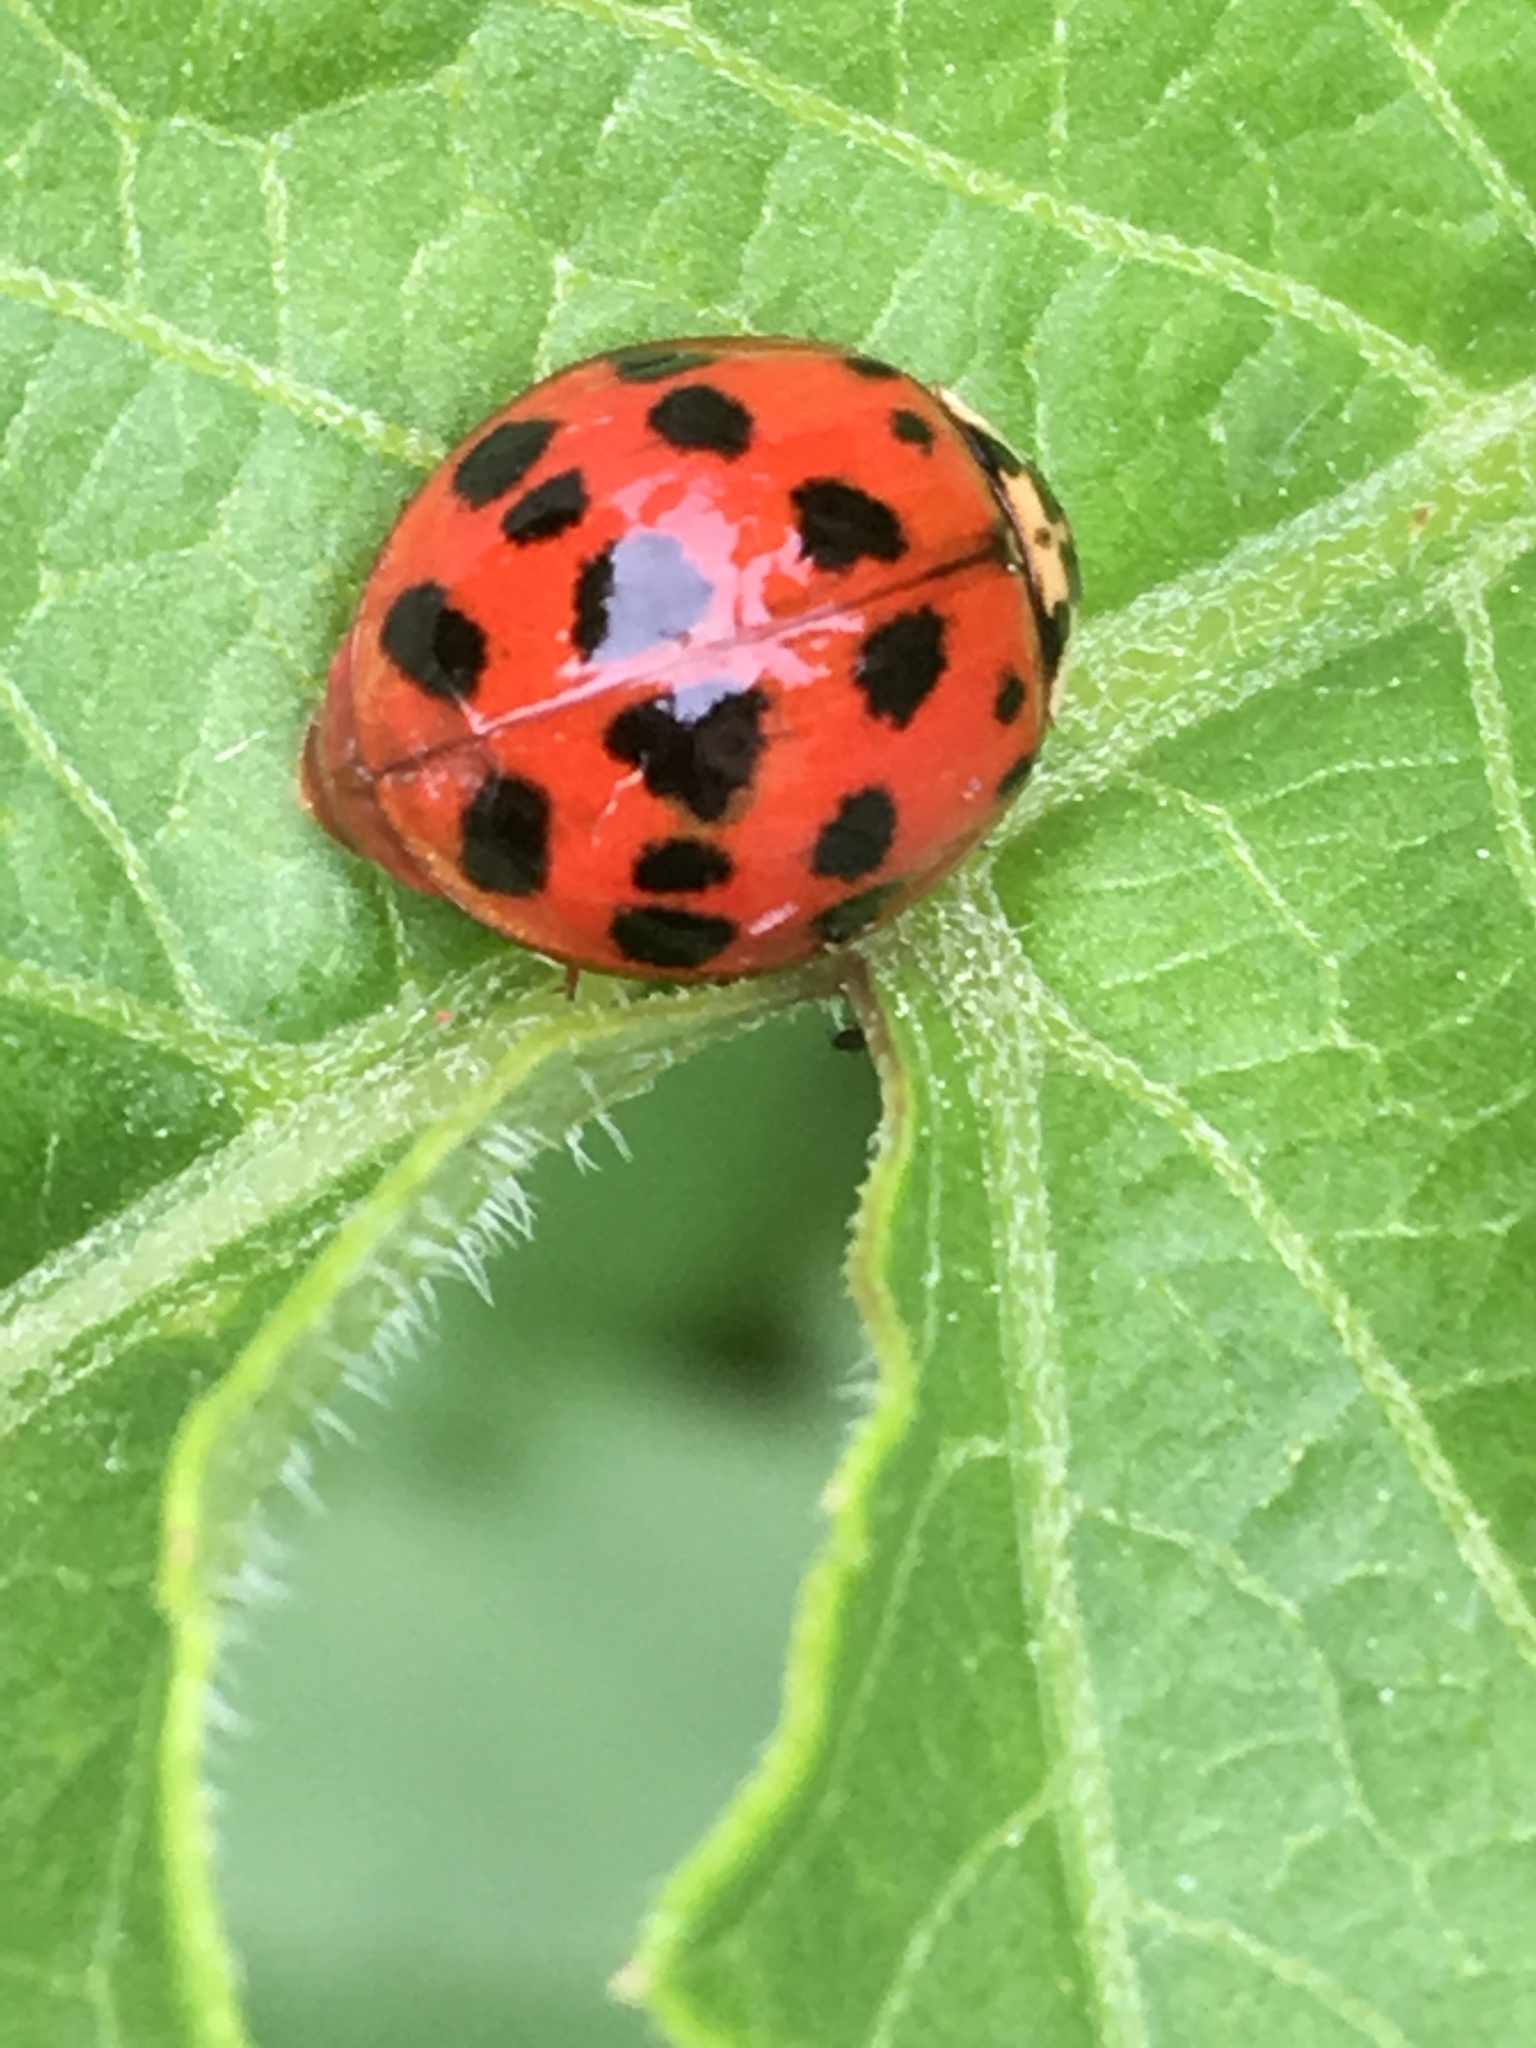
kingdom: Animalia
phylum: Arthropoda
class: Insecta
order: Coleoptera
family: Coccinellidae
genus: Harmonia
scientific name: Harmonia axyridis
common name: Harlequin ladybird
